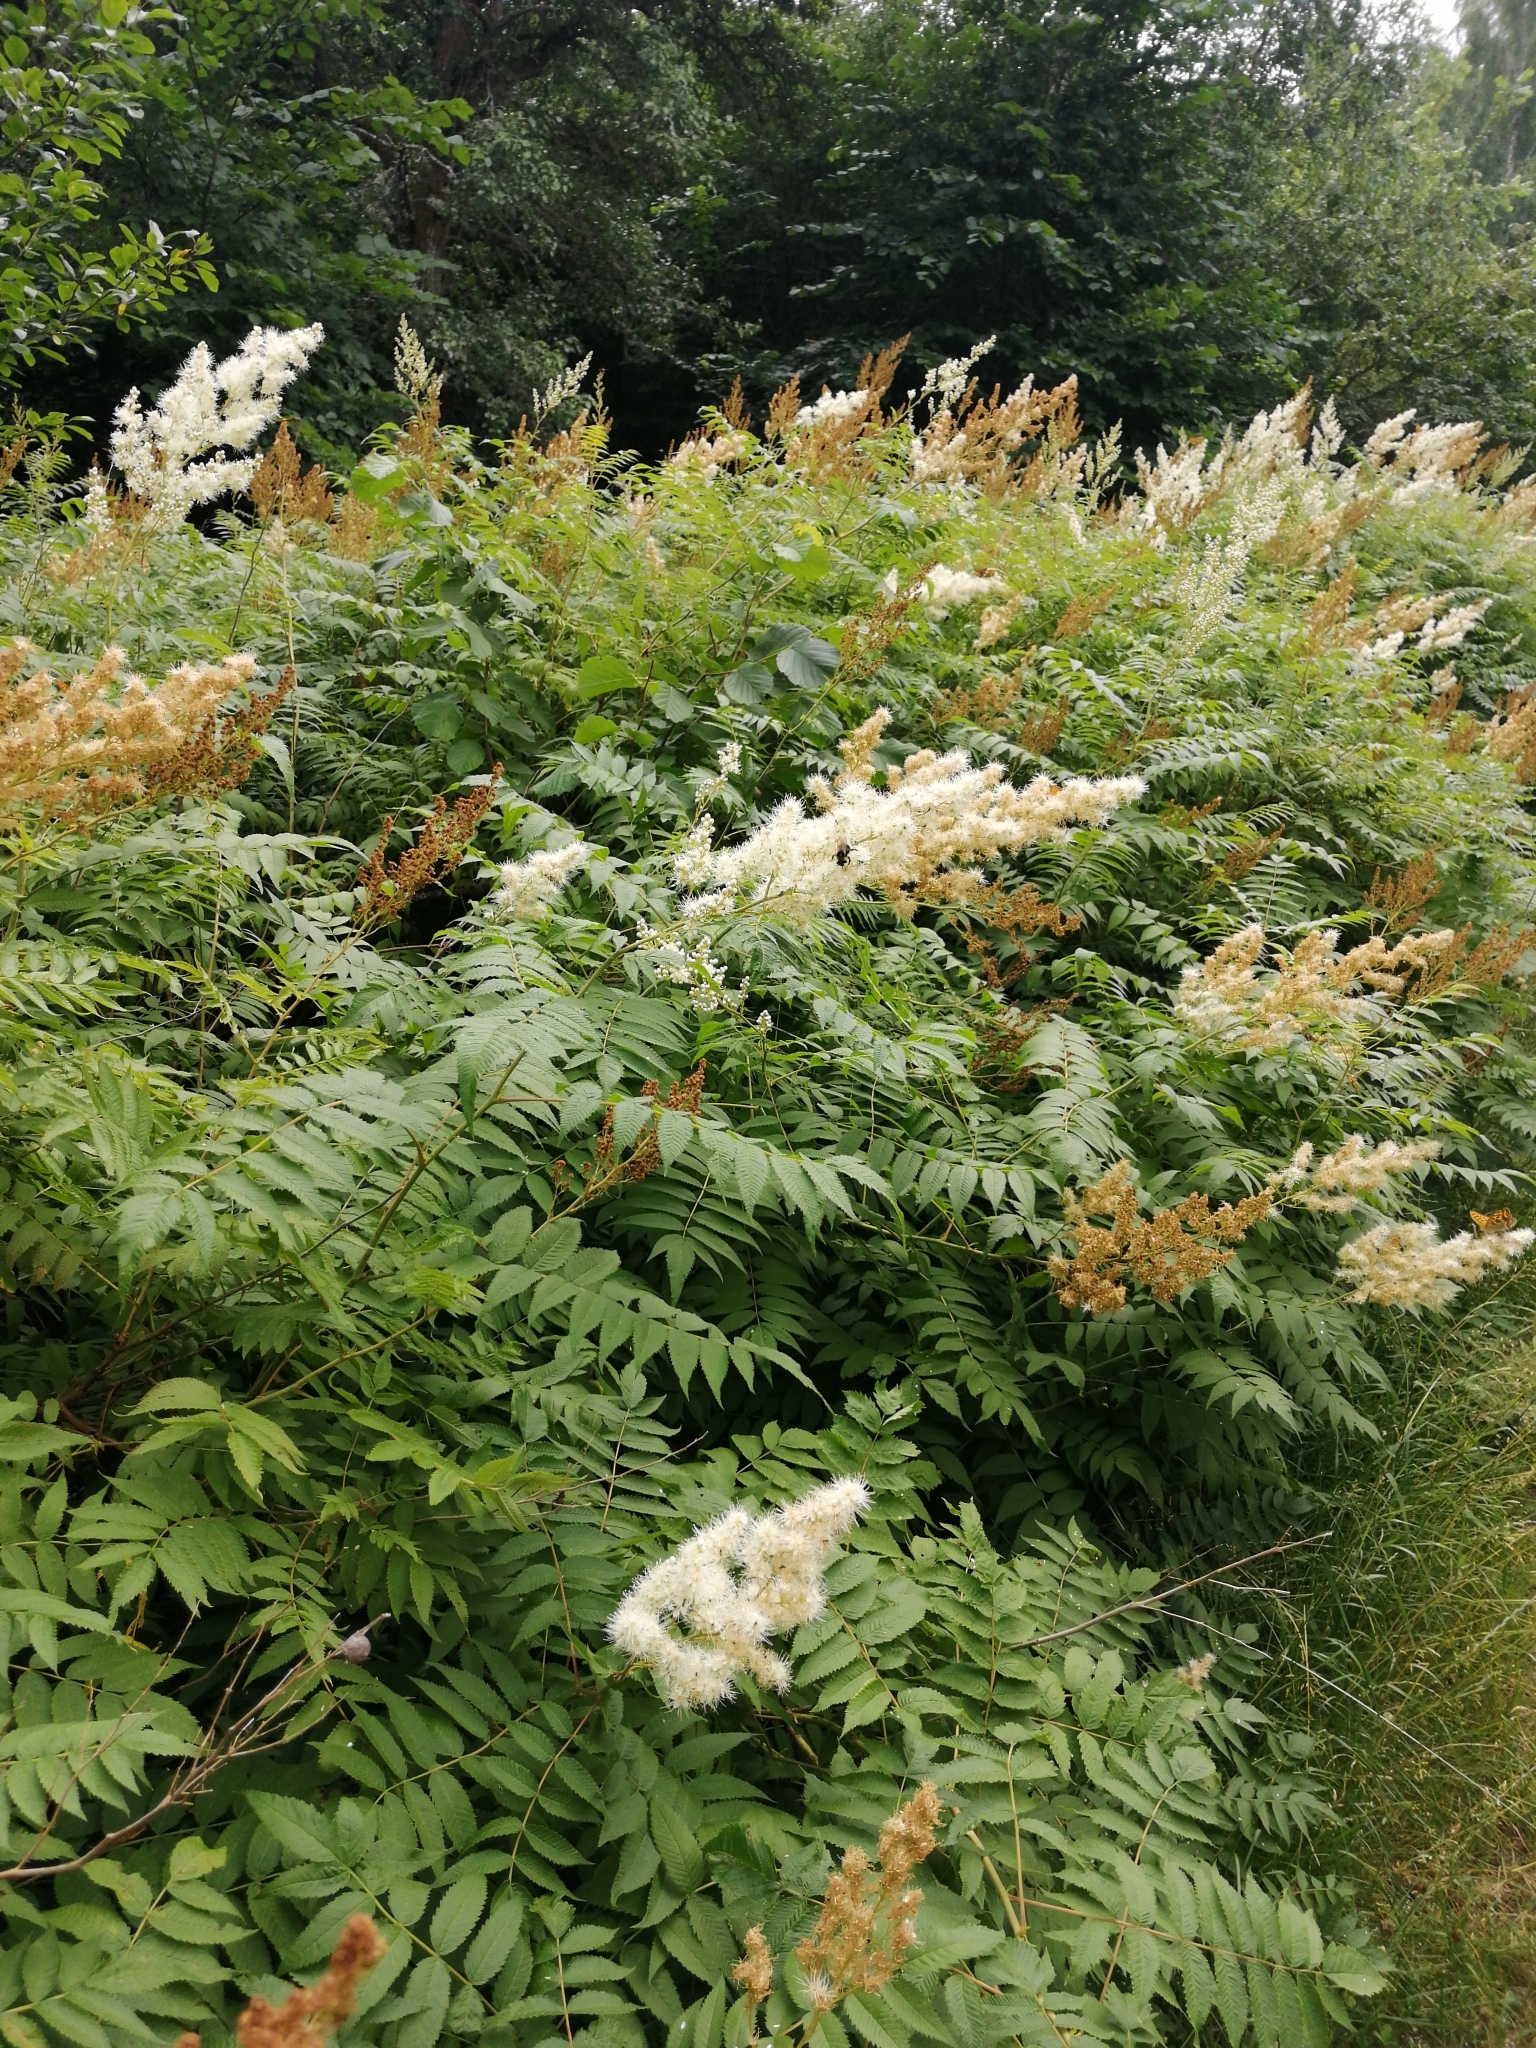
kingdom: Plantae
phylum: Tracheophyta
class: Magnoliopsida
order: Rosales
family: Rosaceae
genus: Sorbaria
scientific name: Sorbaria sorbifolia
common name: False spiraea
